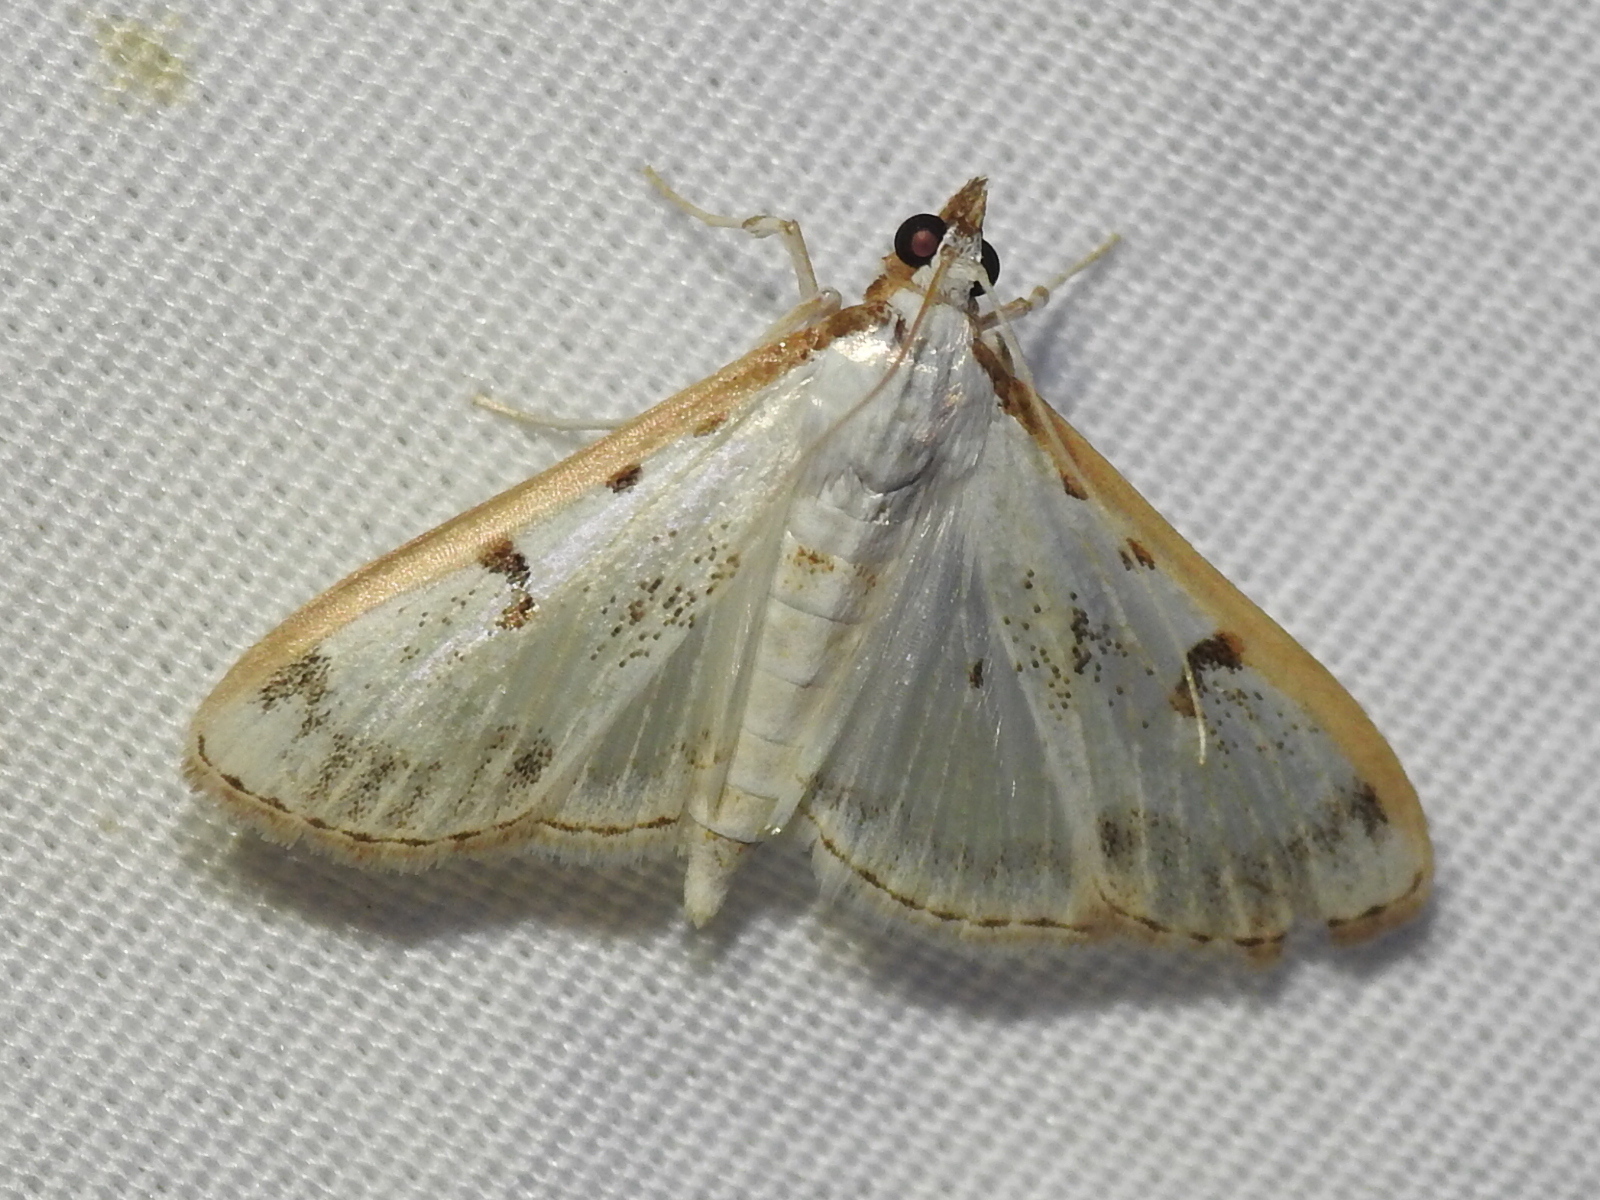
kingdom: Animalia
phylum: Arthropoda
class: Insecta
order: Lepidoptera
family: Crambidae
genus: Palpita
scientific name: Palpita gracilalis
